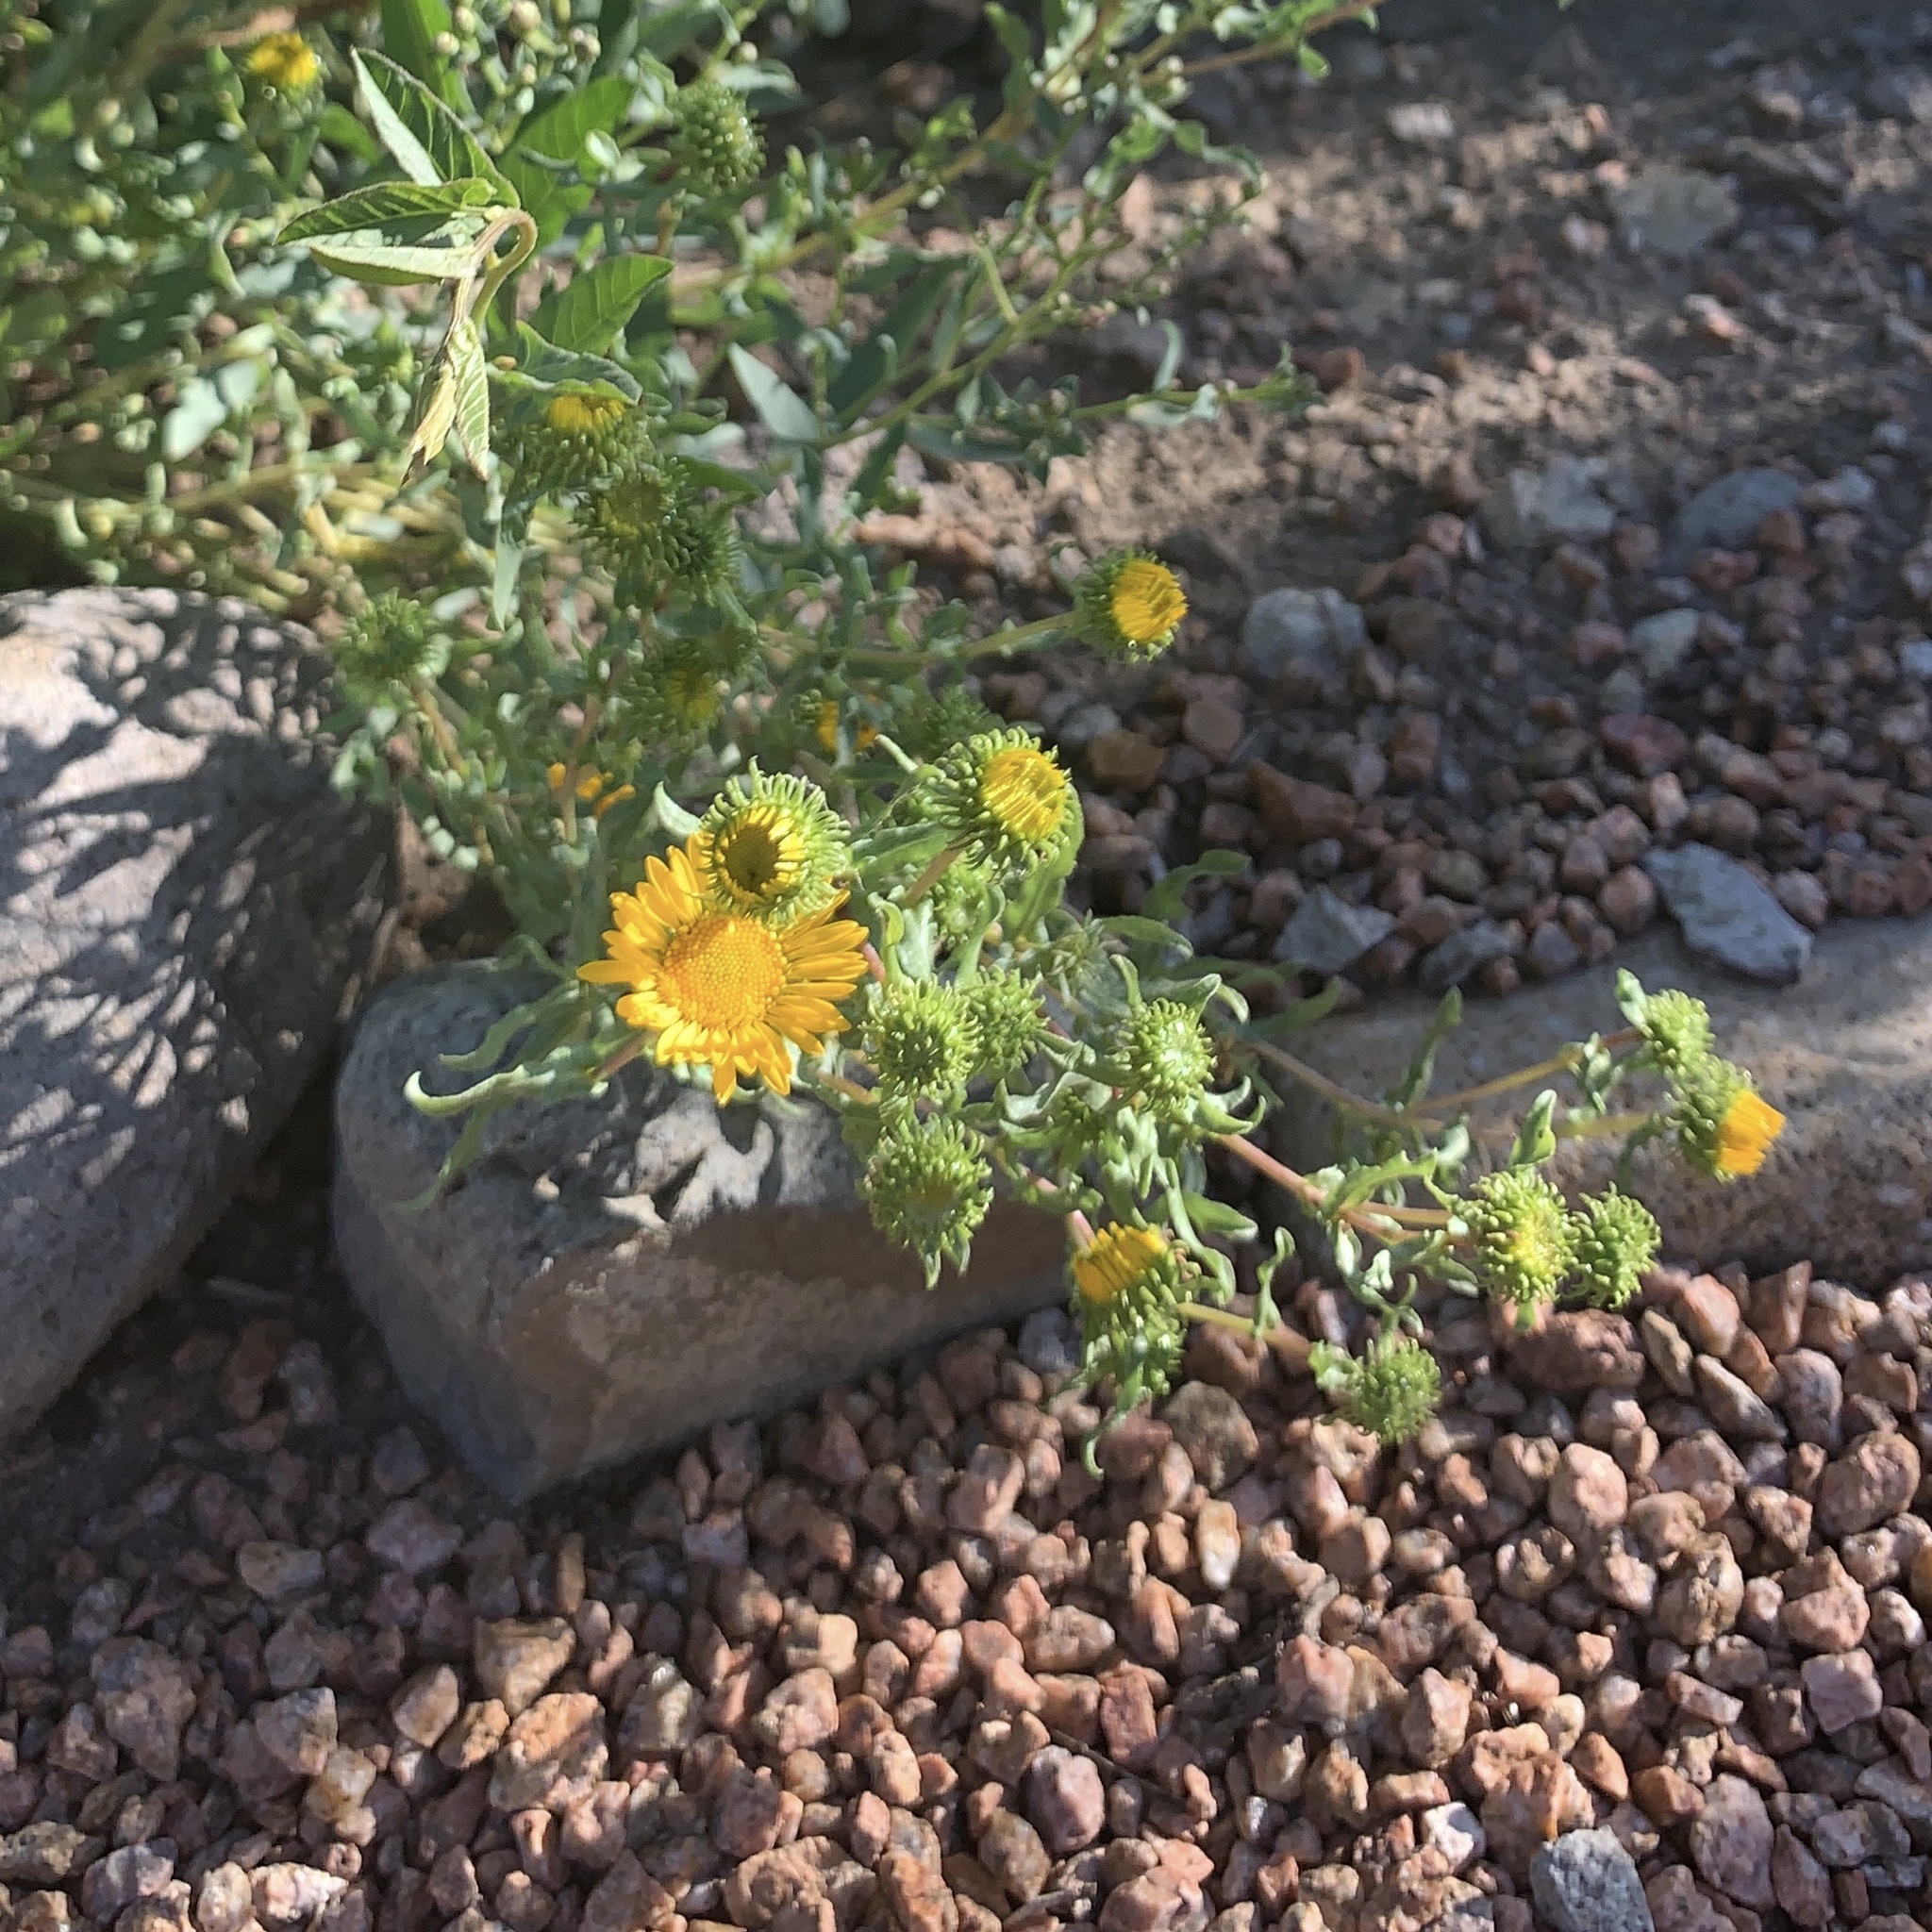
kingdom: Plantae
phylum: Tracheophyta
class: Magnoliopsida
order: Asterales
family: Asteraceae
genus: Grindelia
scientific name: Grindelia squarrosa
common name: Curly-cup gumweed
